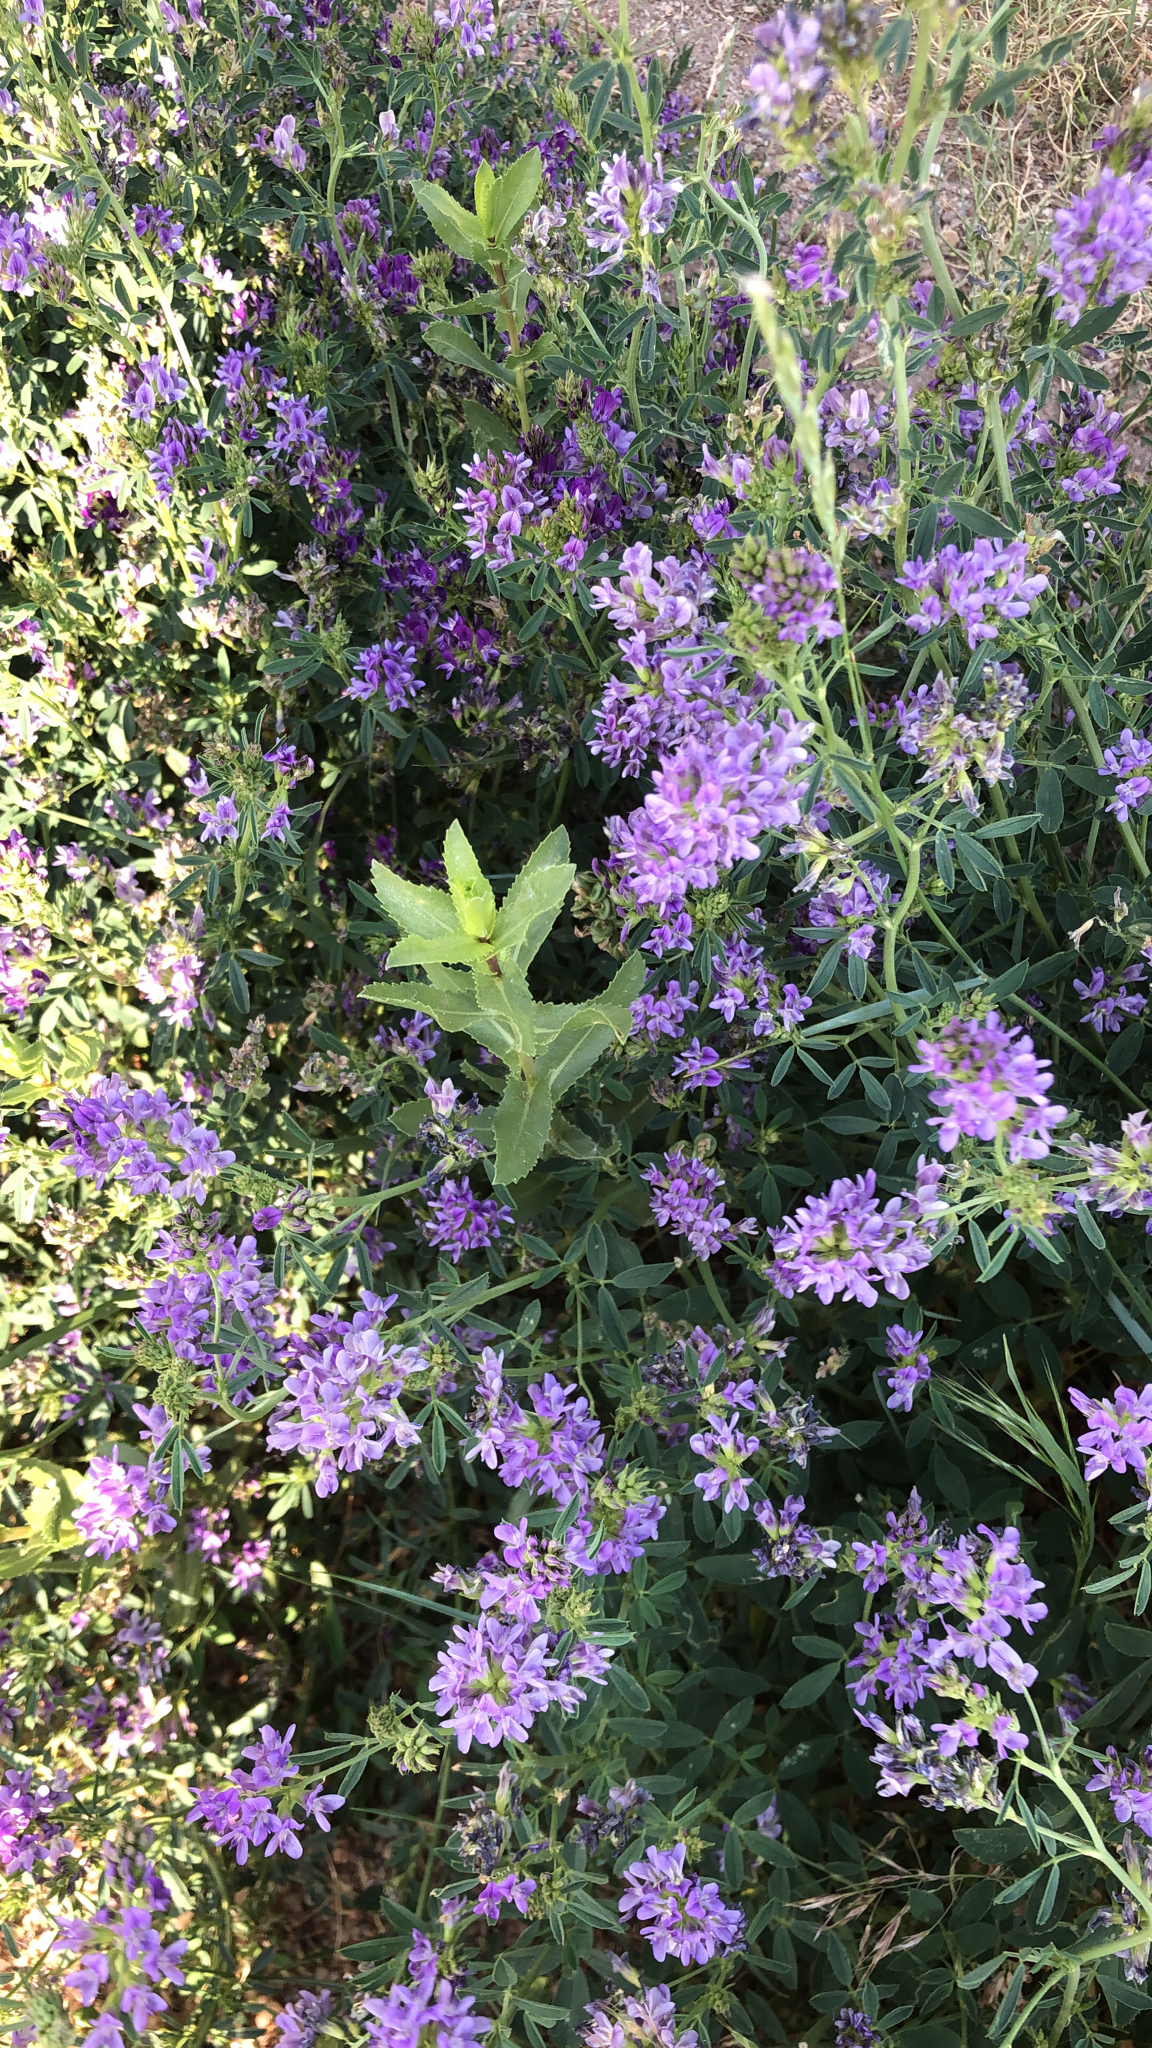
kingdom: Plantae
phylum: Tracheophyta
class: Magnoliopsida
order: Fabales
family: Fabaceae
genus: Medicago
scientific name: Medicago sativa
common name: Alfalfa
